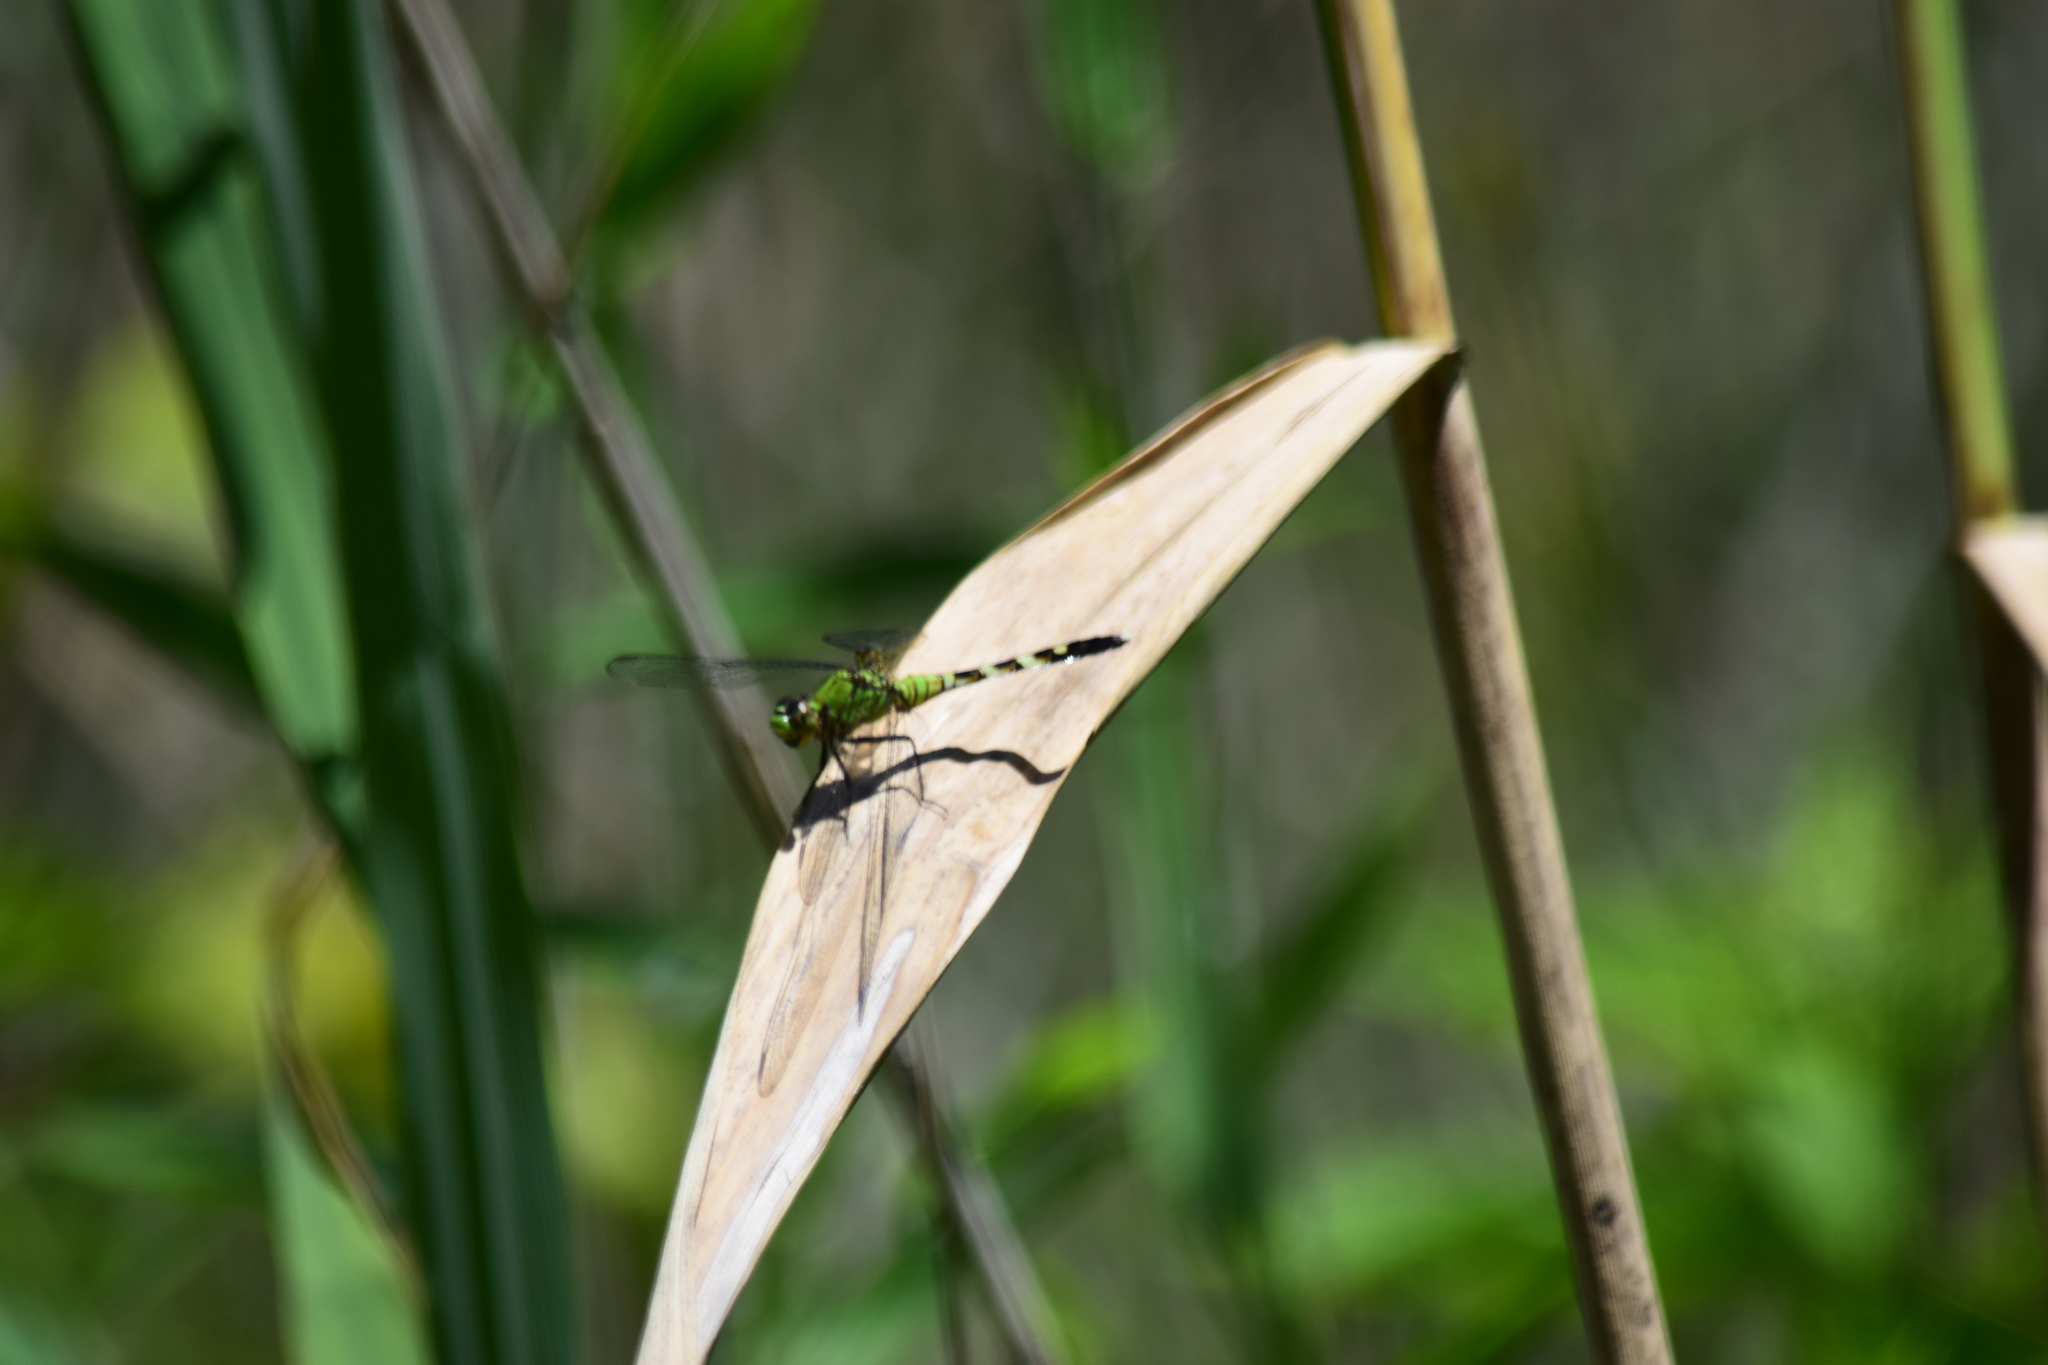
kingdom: Animalia
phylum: Arthropoda
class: Insecta
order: Odonata
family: Libellulidae
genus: Erythemis
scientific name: Erythemis simplicicollis
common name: Eastern pondhawk
